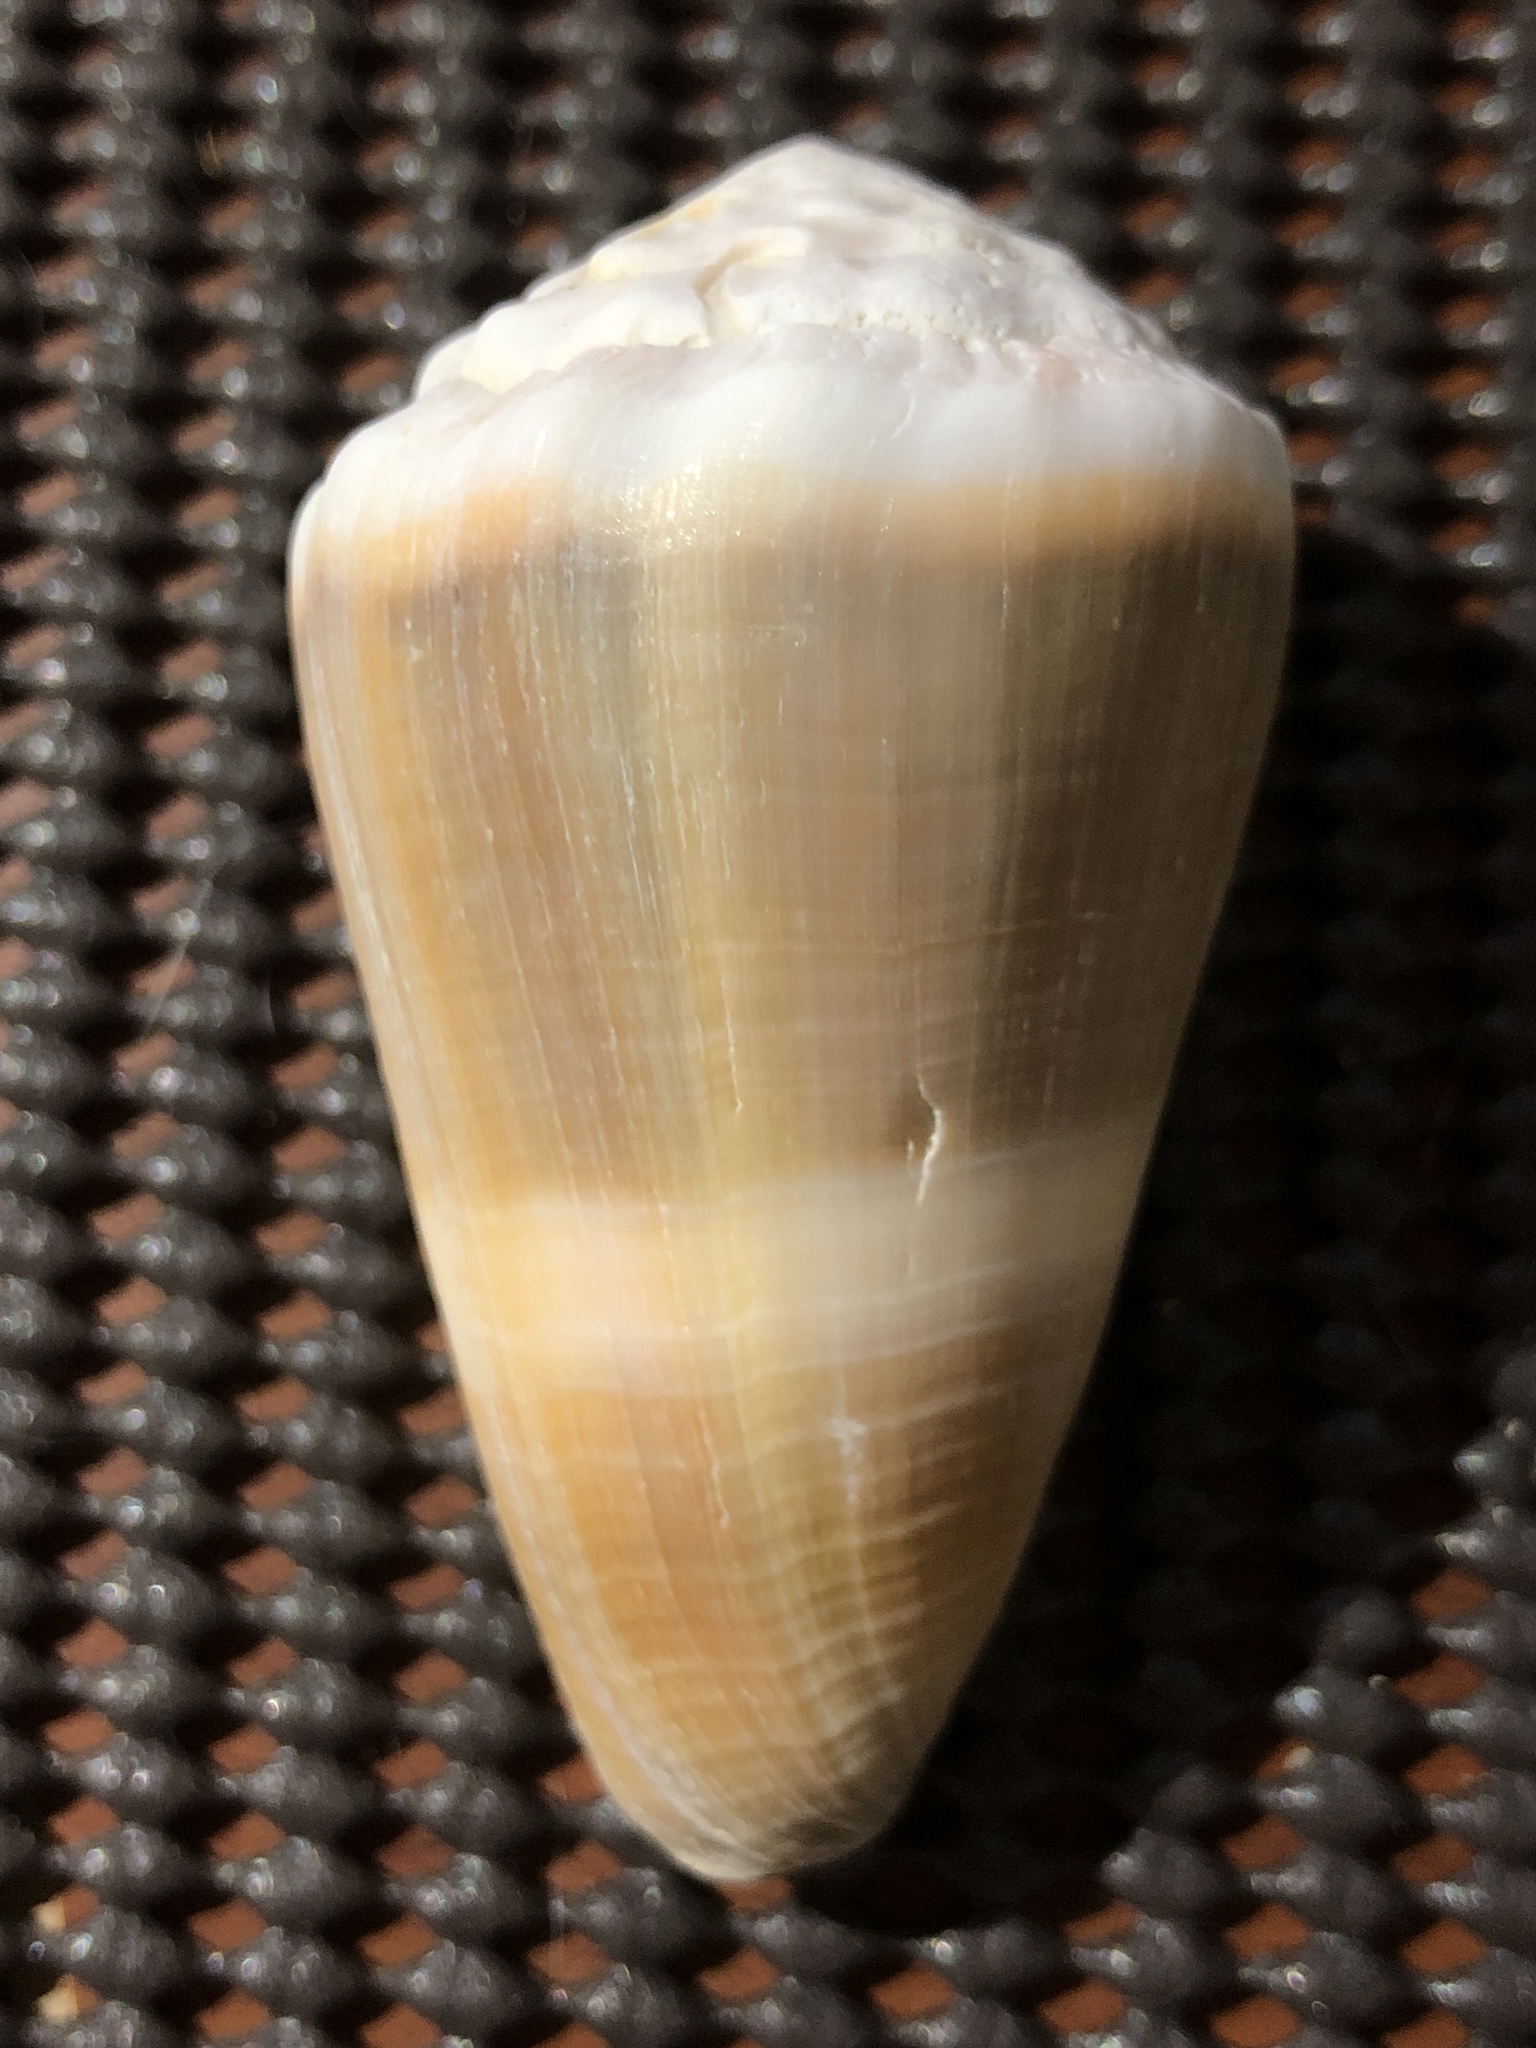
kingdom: Animalia
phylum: Mollusca
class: Gastropoda
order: Neogastropoda
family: Conidae
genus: Conus
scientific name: Conus lividus
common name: Livid cone
